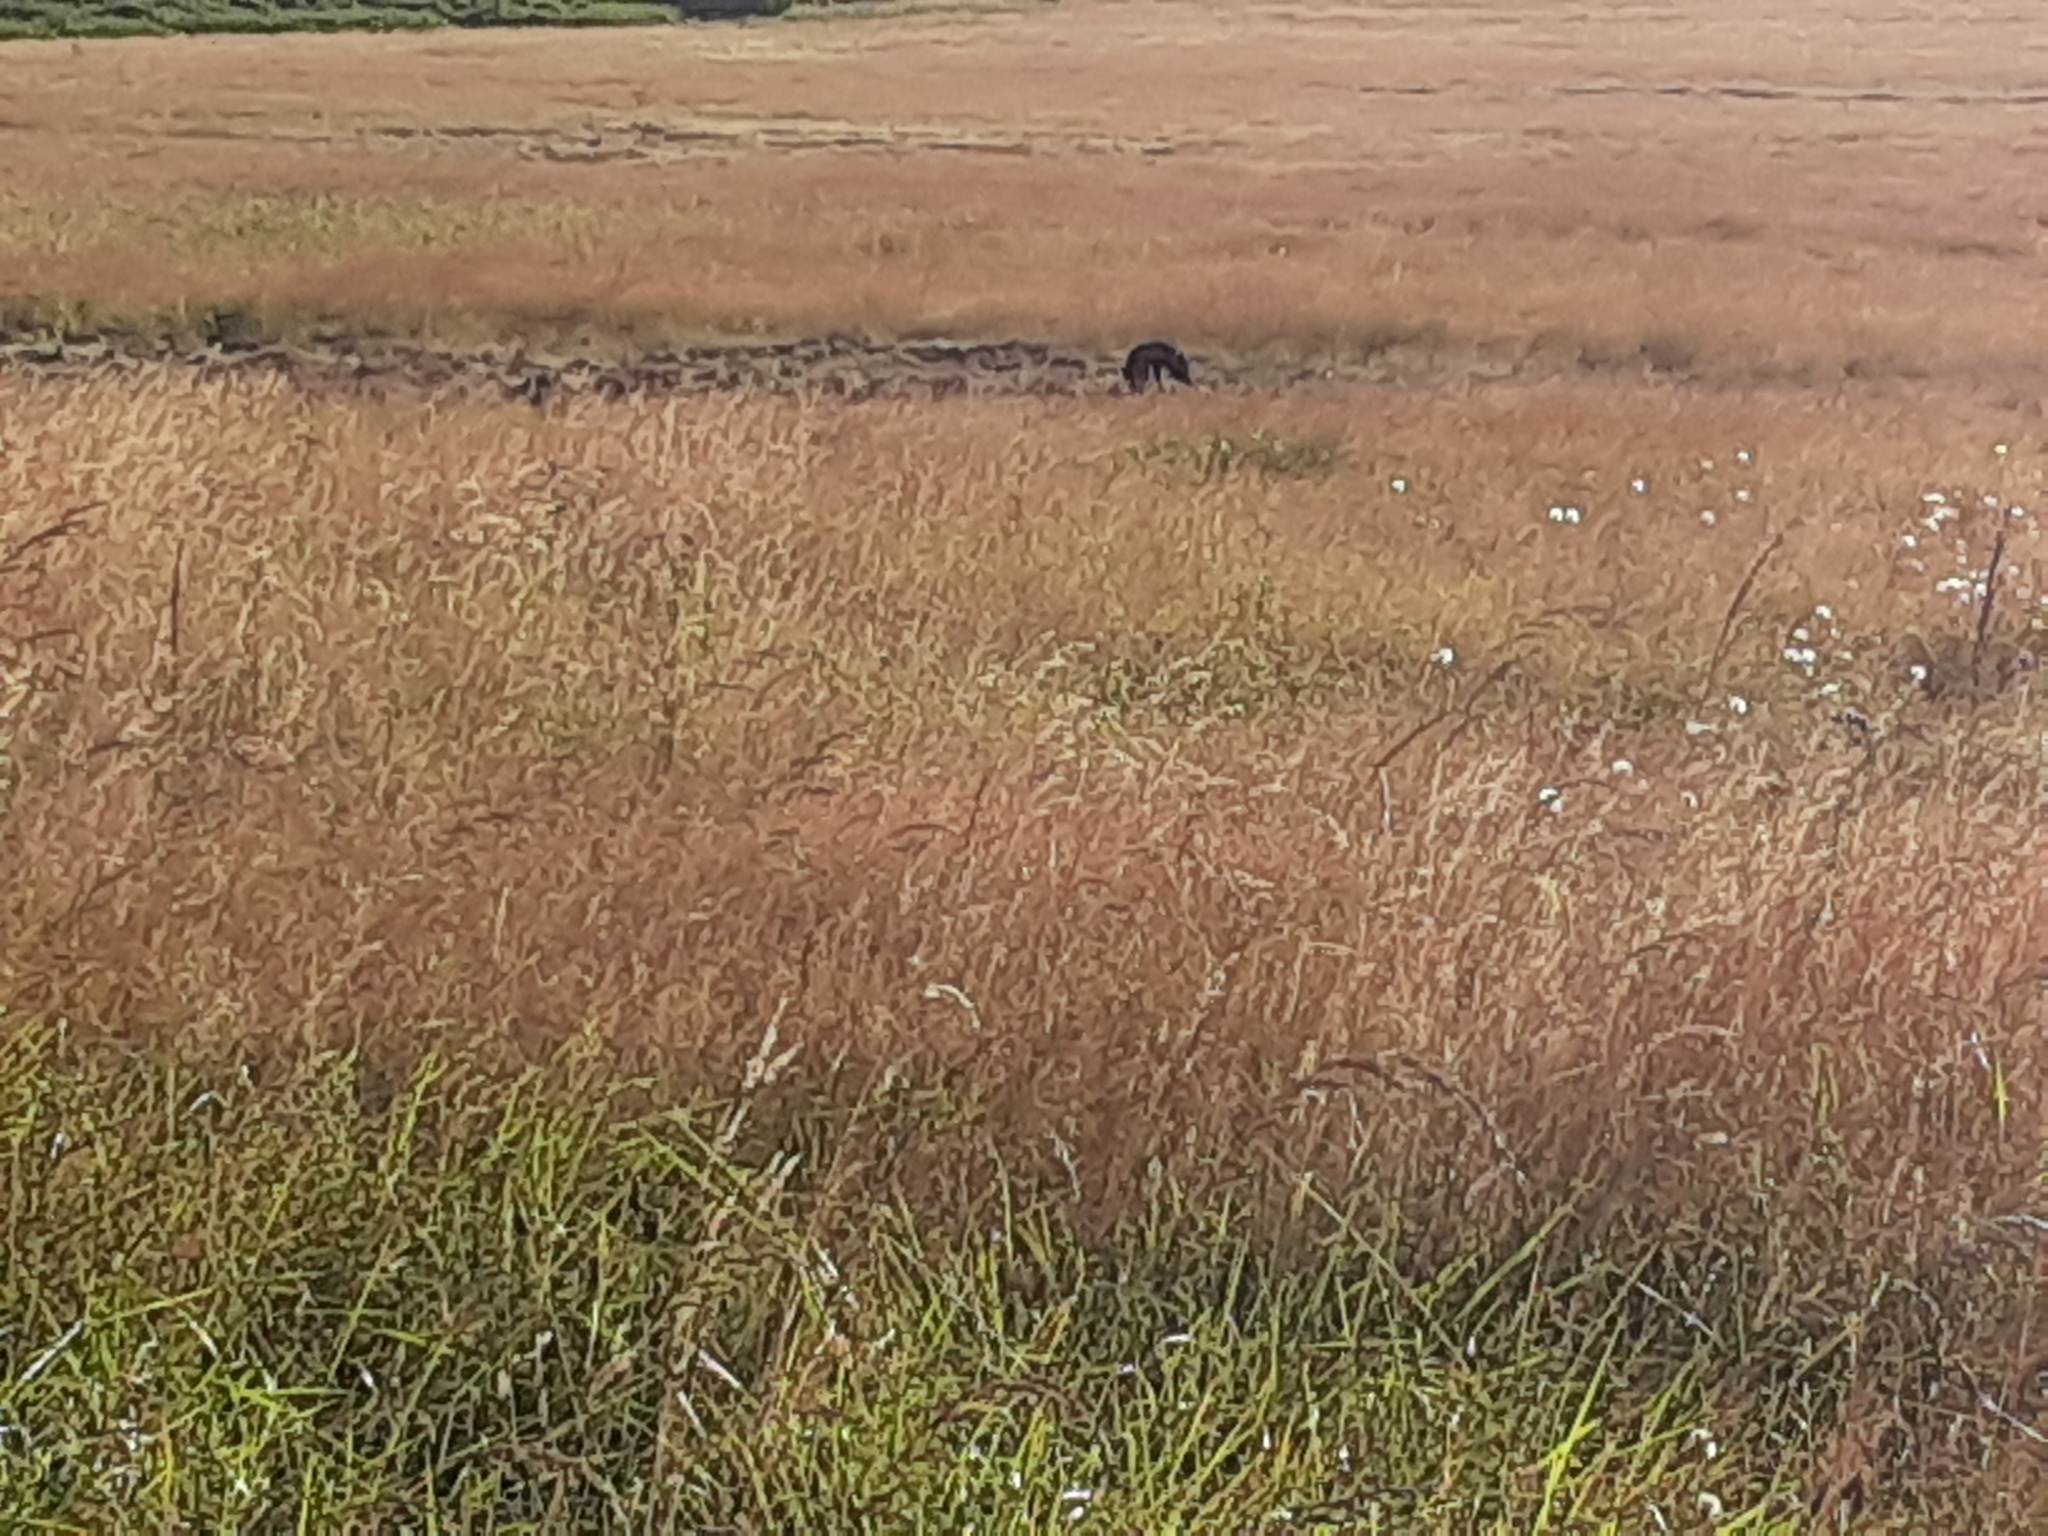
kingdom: Animalia
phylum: Chordata
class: Mammalia
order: Carnivora
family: Canidae
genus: Vulpes
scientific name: Vulpes vulpes
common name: Red fox
